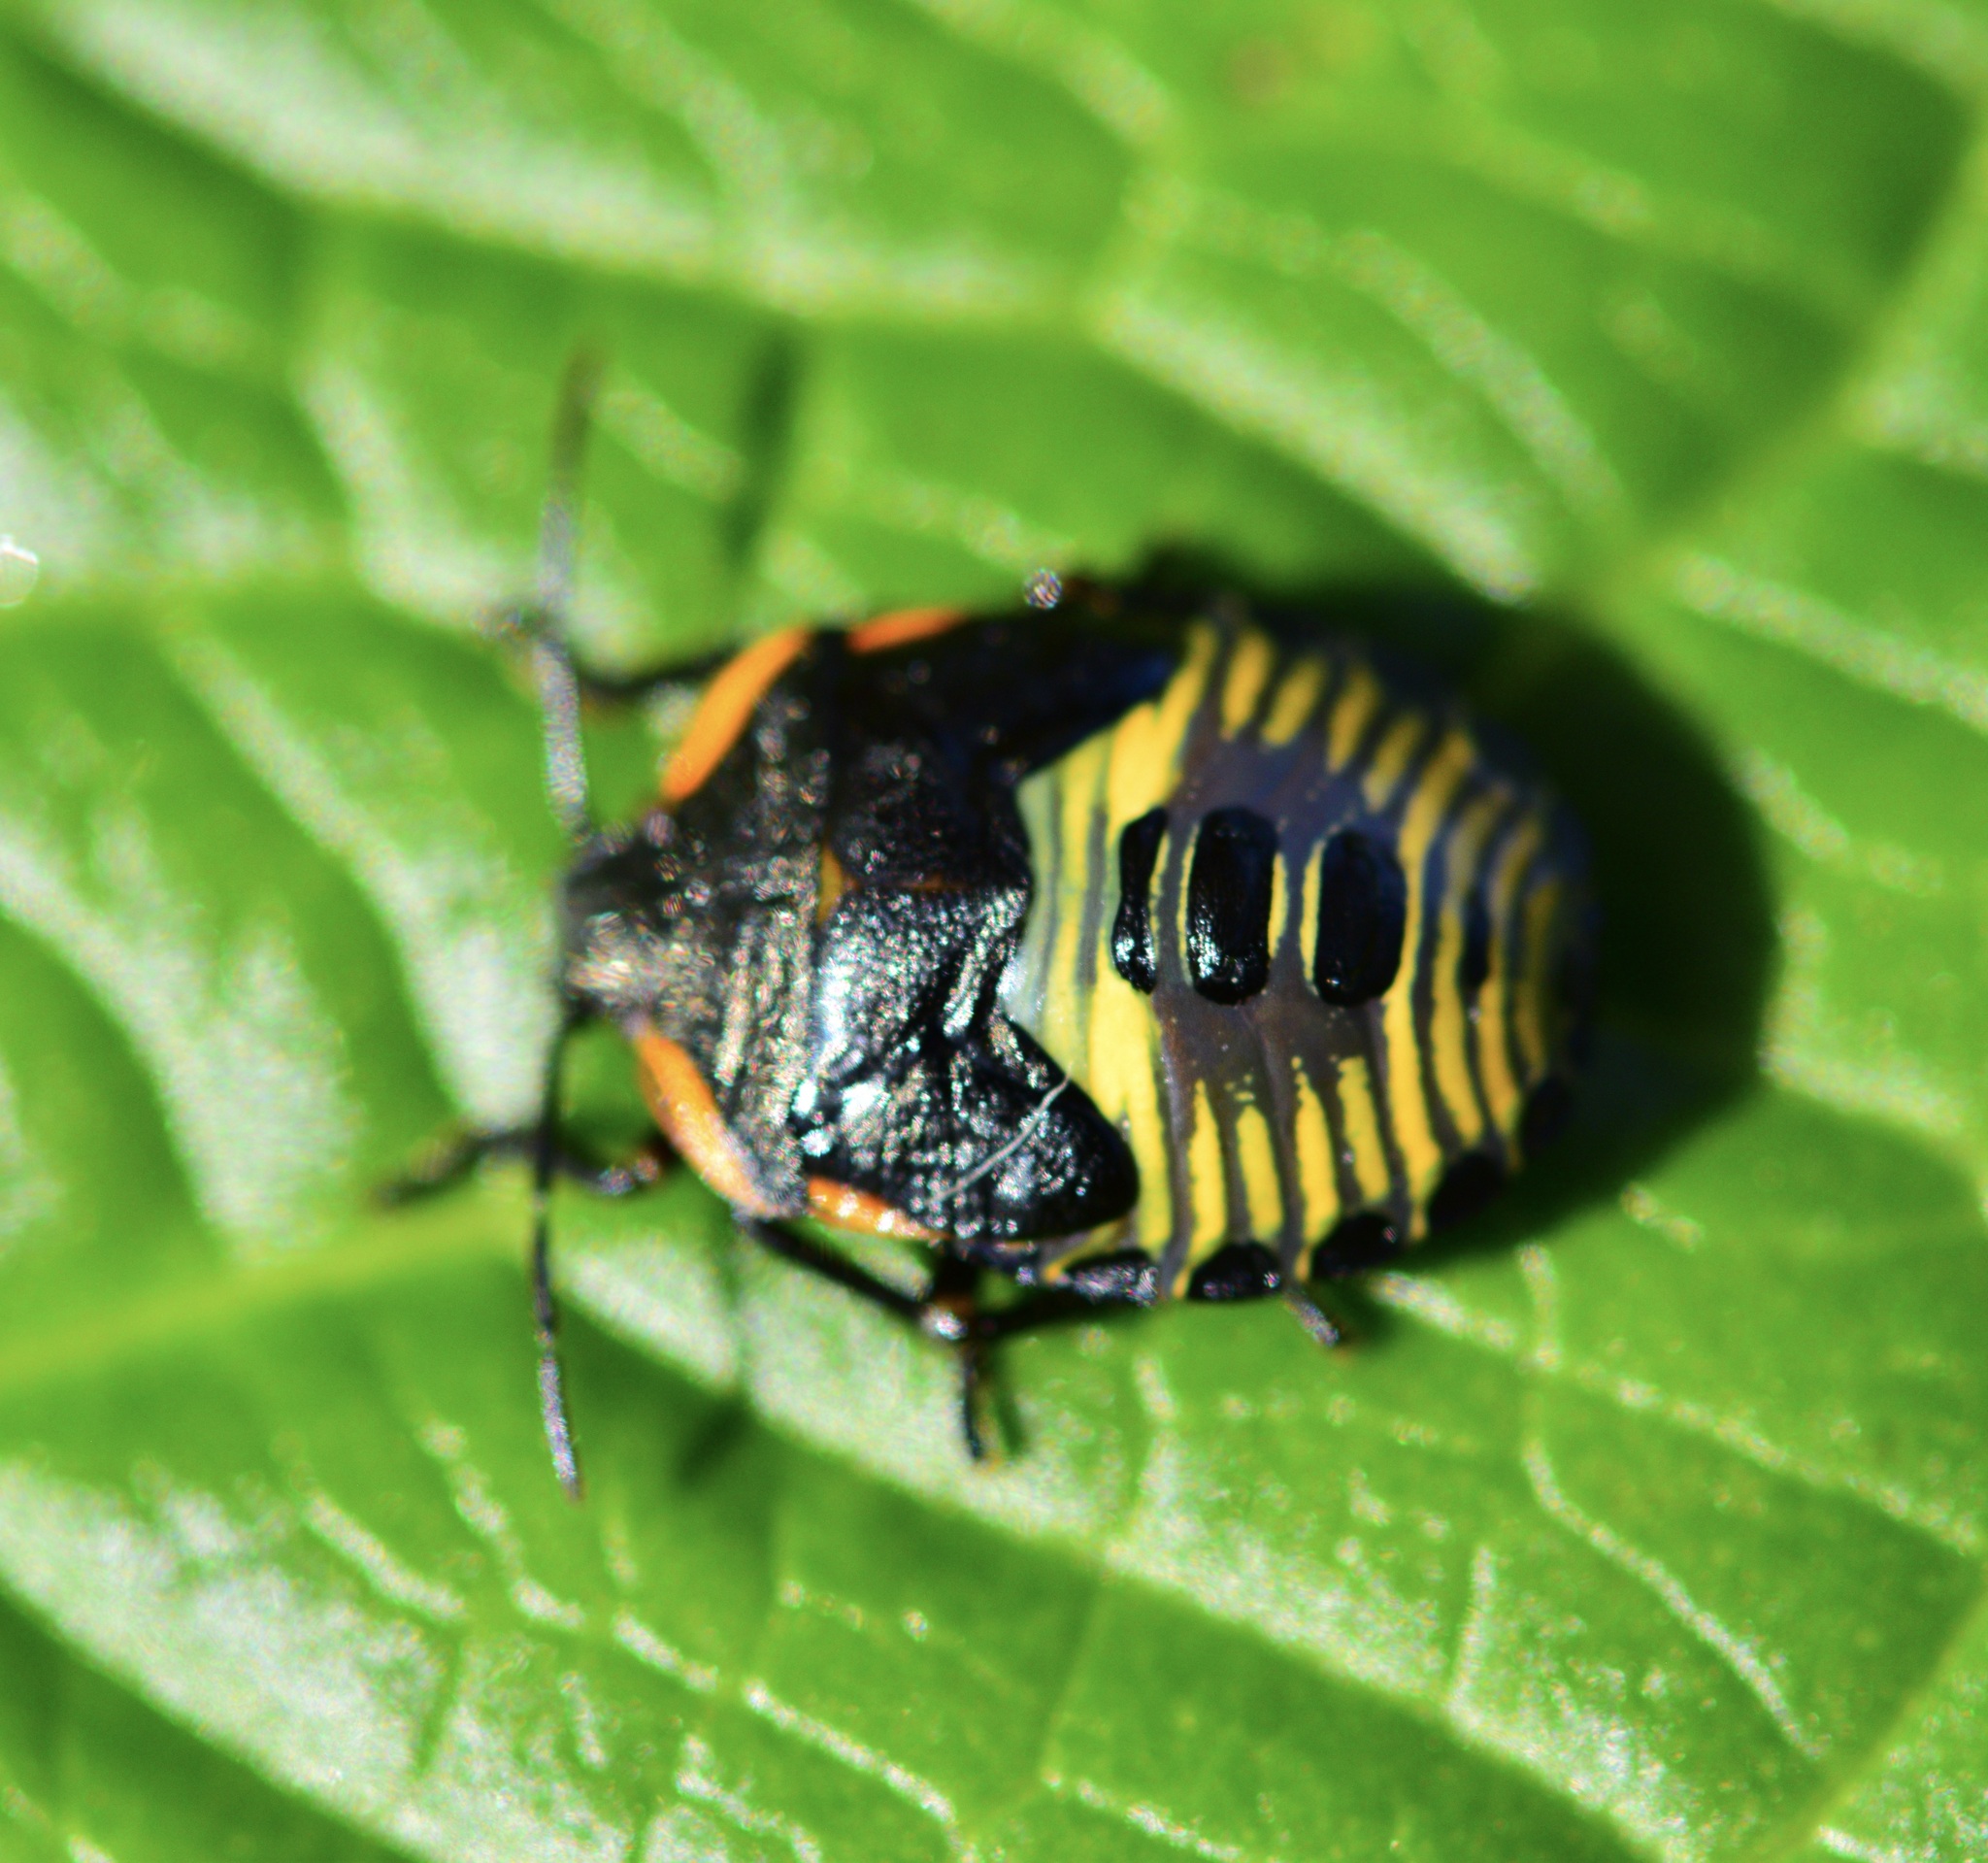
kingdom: Animalia
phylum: Arthropoda
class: Insecta
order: Hemiptera
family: Pentatomidae
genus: Chinavia
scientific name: Chinavia hilaris
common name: Green stink bug
